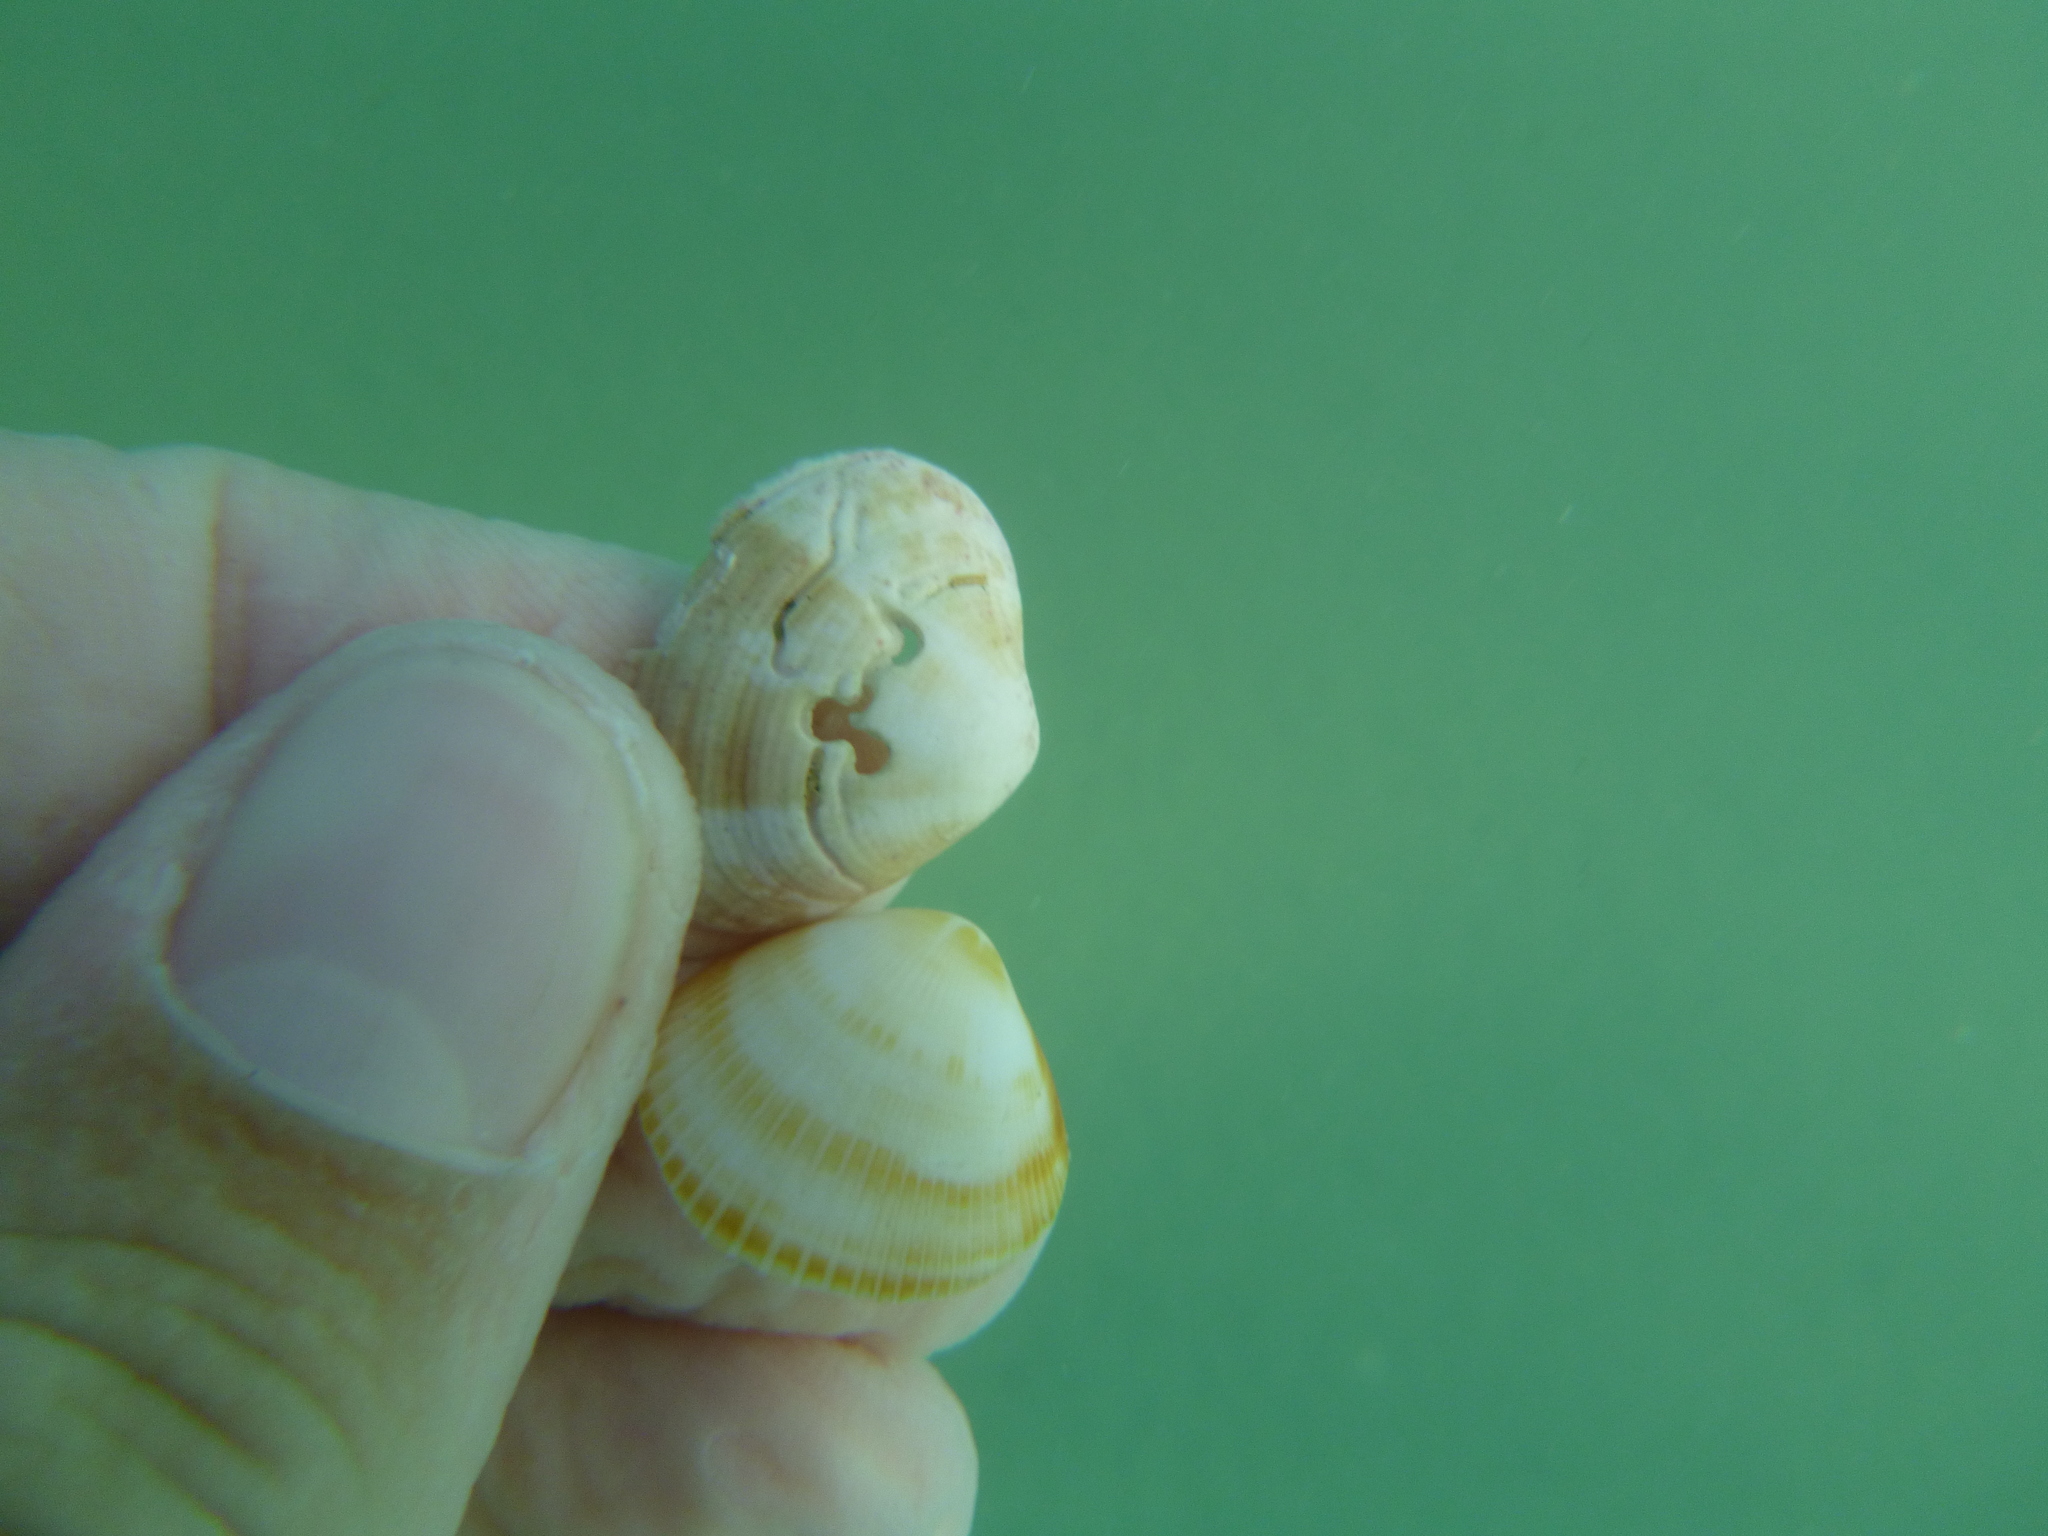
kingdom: Animalia
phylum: Mollusca
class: Bivalvia
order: Venerida
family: Veneridae
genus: Tawera
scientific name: Tawera spissa
